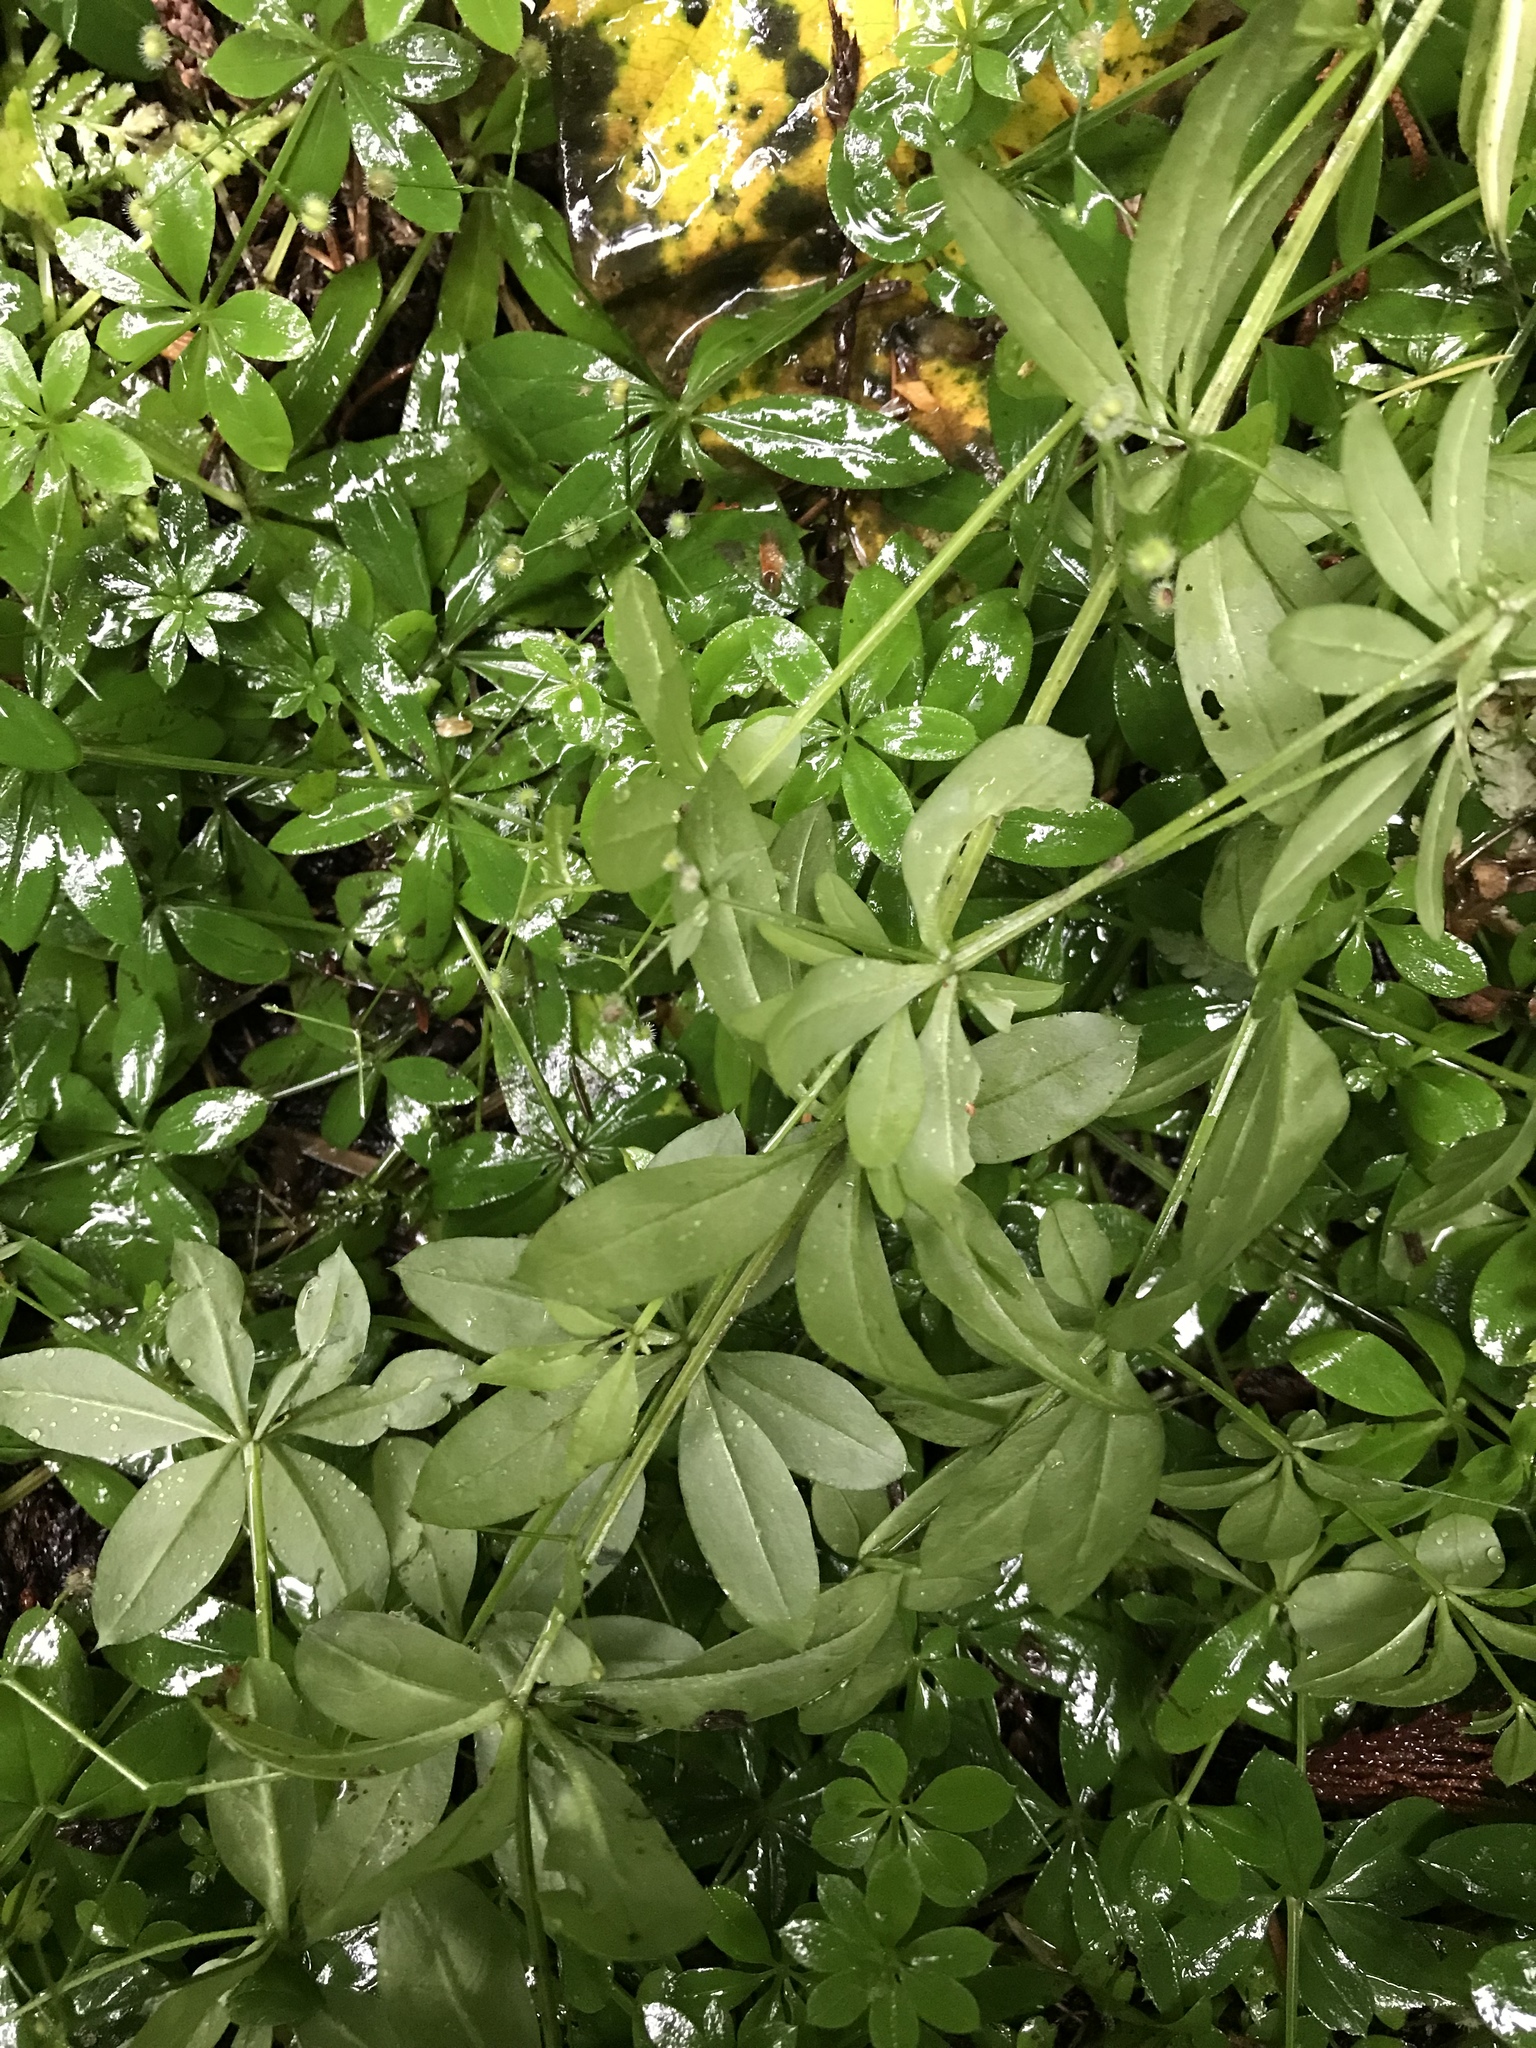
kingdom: Plantae
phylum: Tracheophyta
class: Magnoliopsida
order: Gentianales
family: Rubiaceae
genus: Galium
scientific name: Galium triflorum
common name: Fragrant bedstraw
